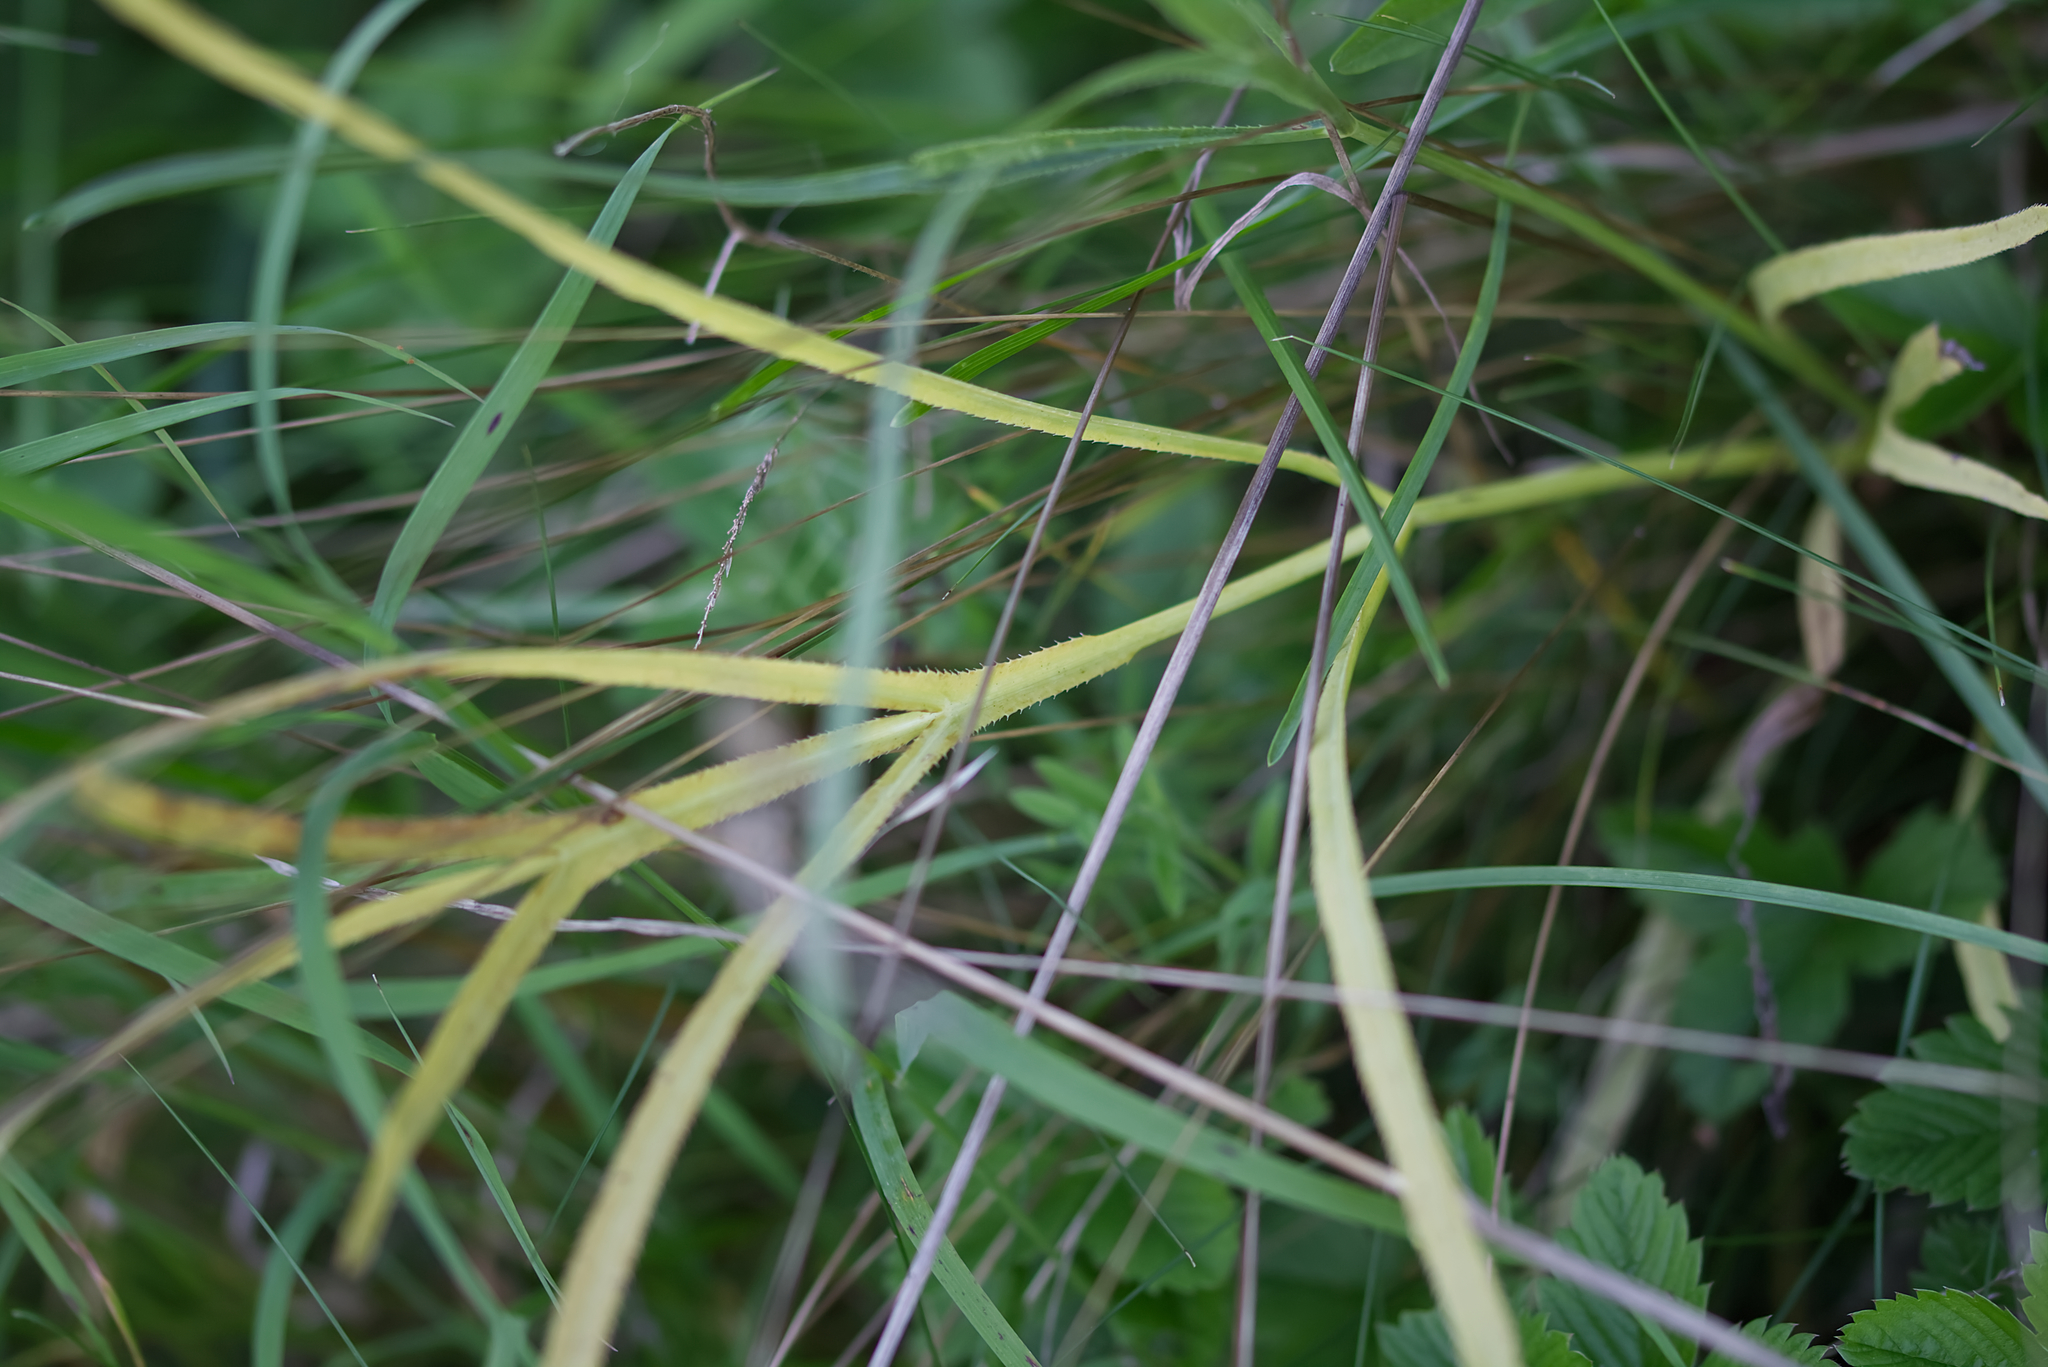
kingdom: Plantae
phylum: Tracheophyta
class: Magnoliopsida
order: Apiales
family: Apiaceae
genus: Falcaria
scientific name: Falcaria vulgaris
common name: Longleaf
